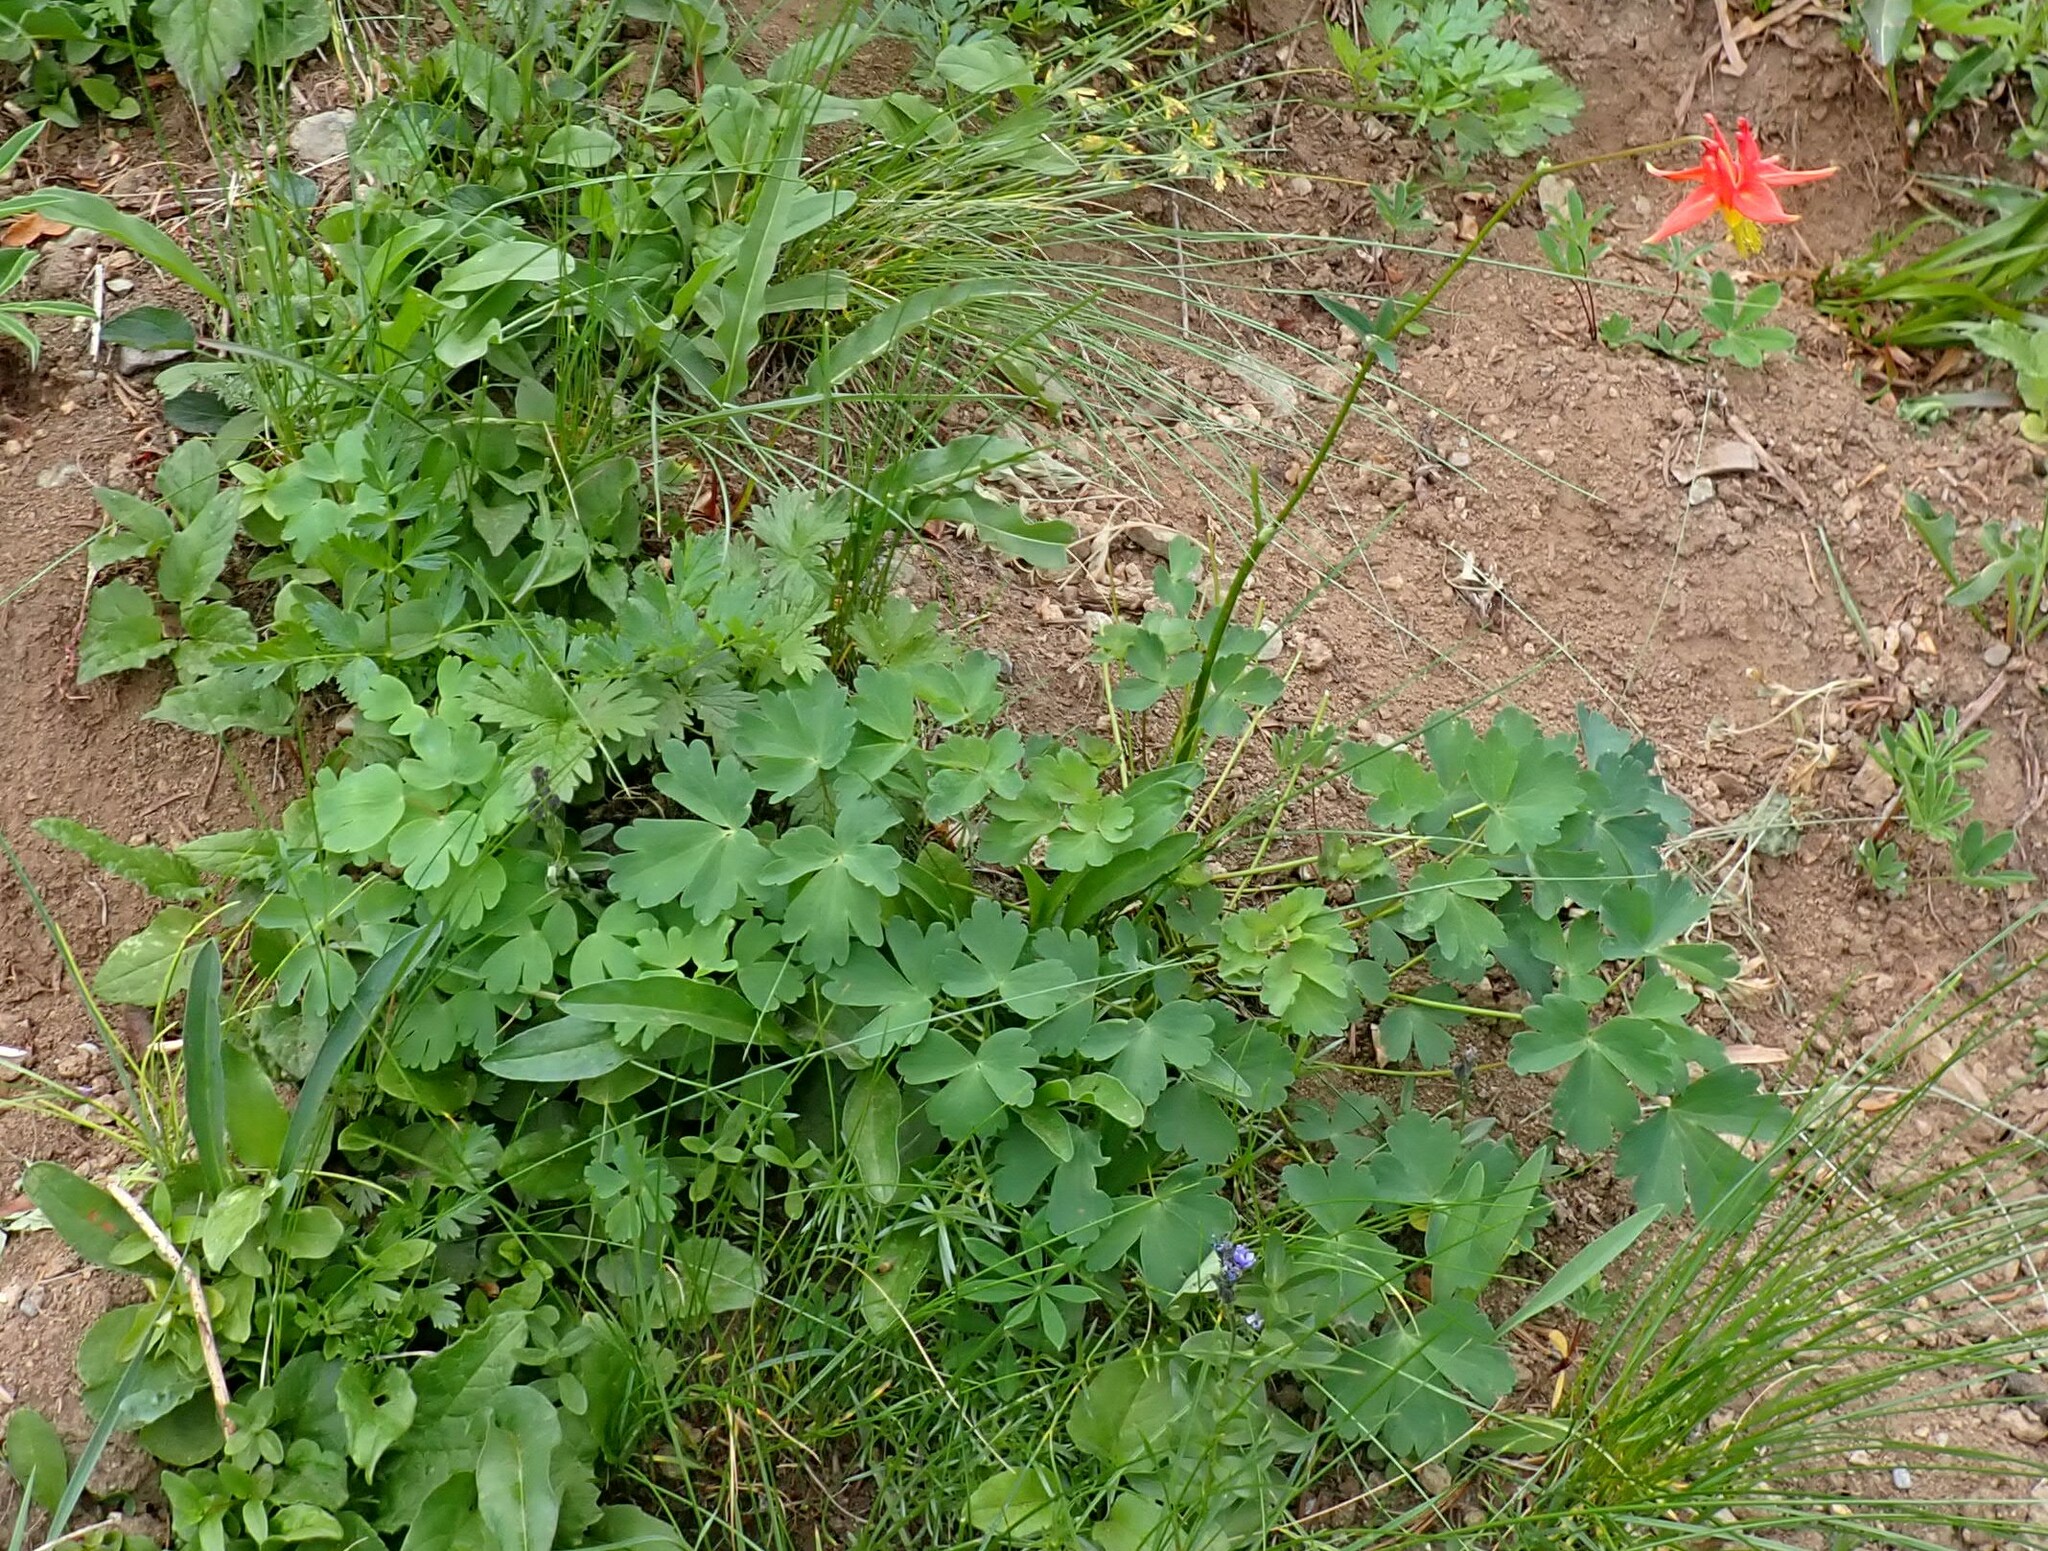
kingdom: Plantae
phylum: Tracheophyta
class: Magnoliopsida
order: Ranunculales
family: Ranunculaceae
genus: Aquilegia
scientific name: Aquilegia formosa
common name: Sitka columbine
